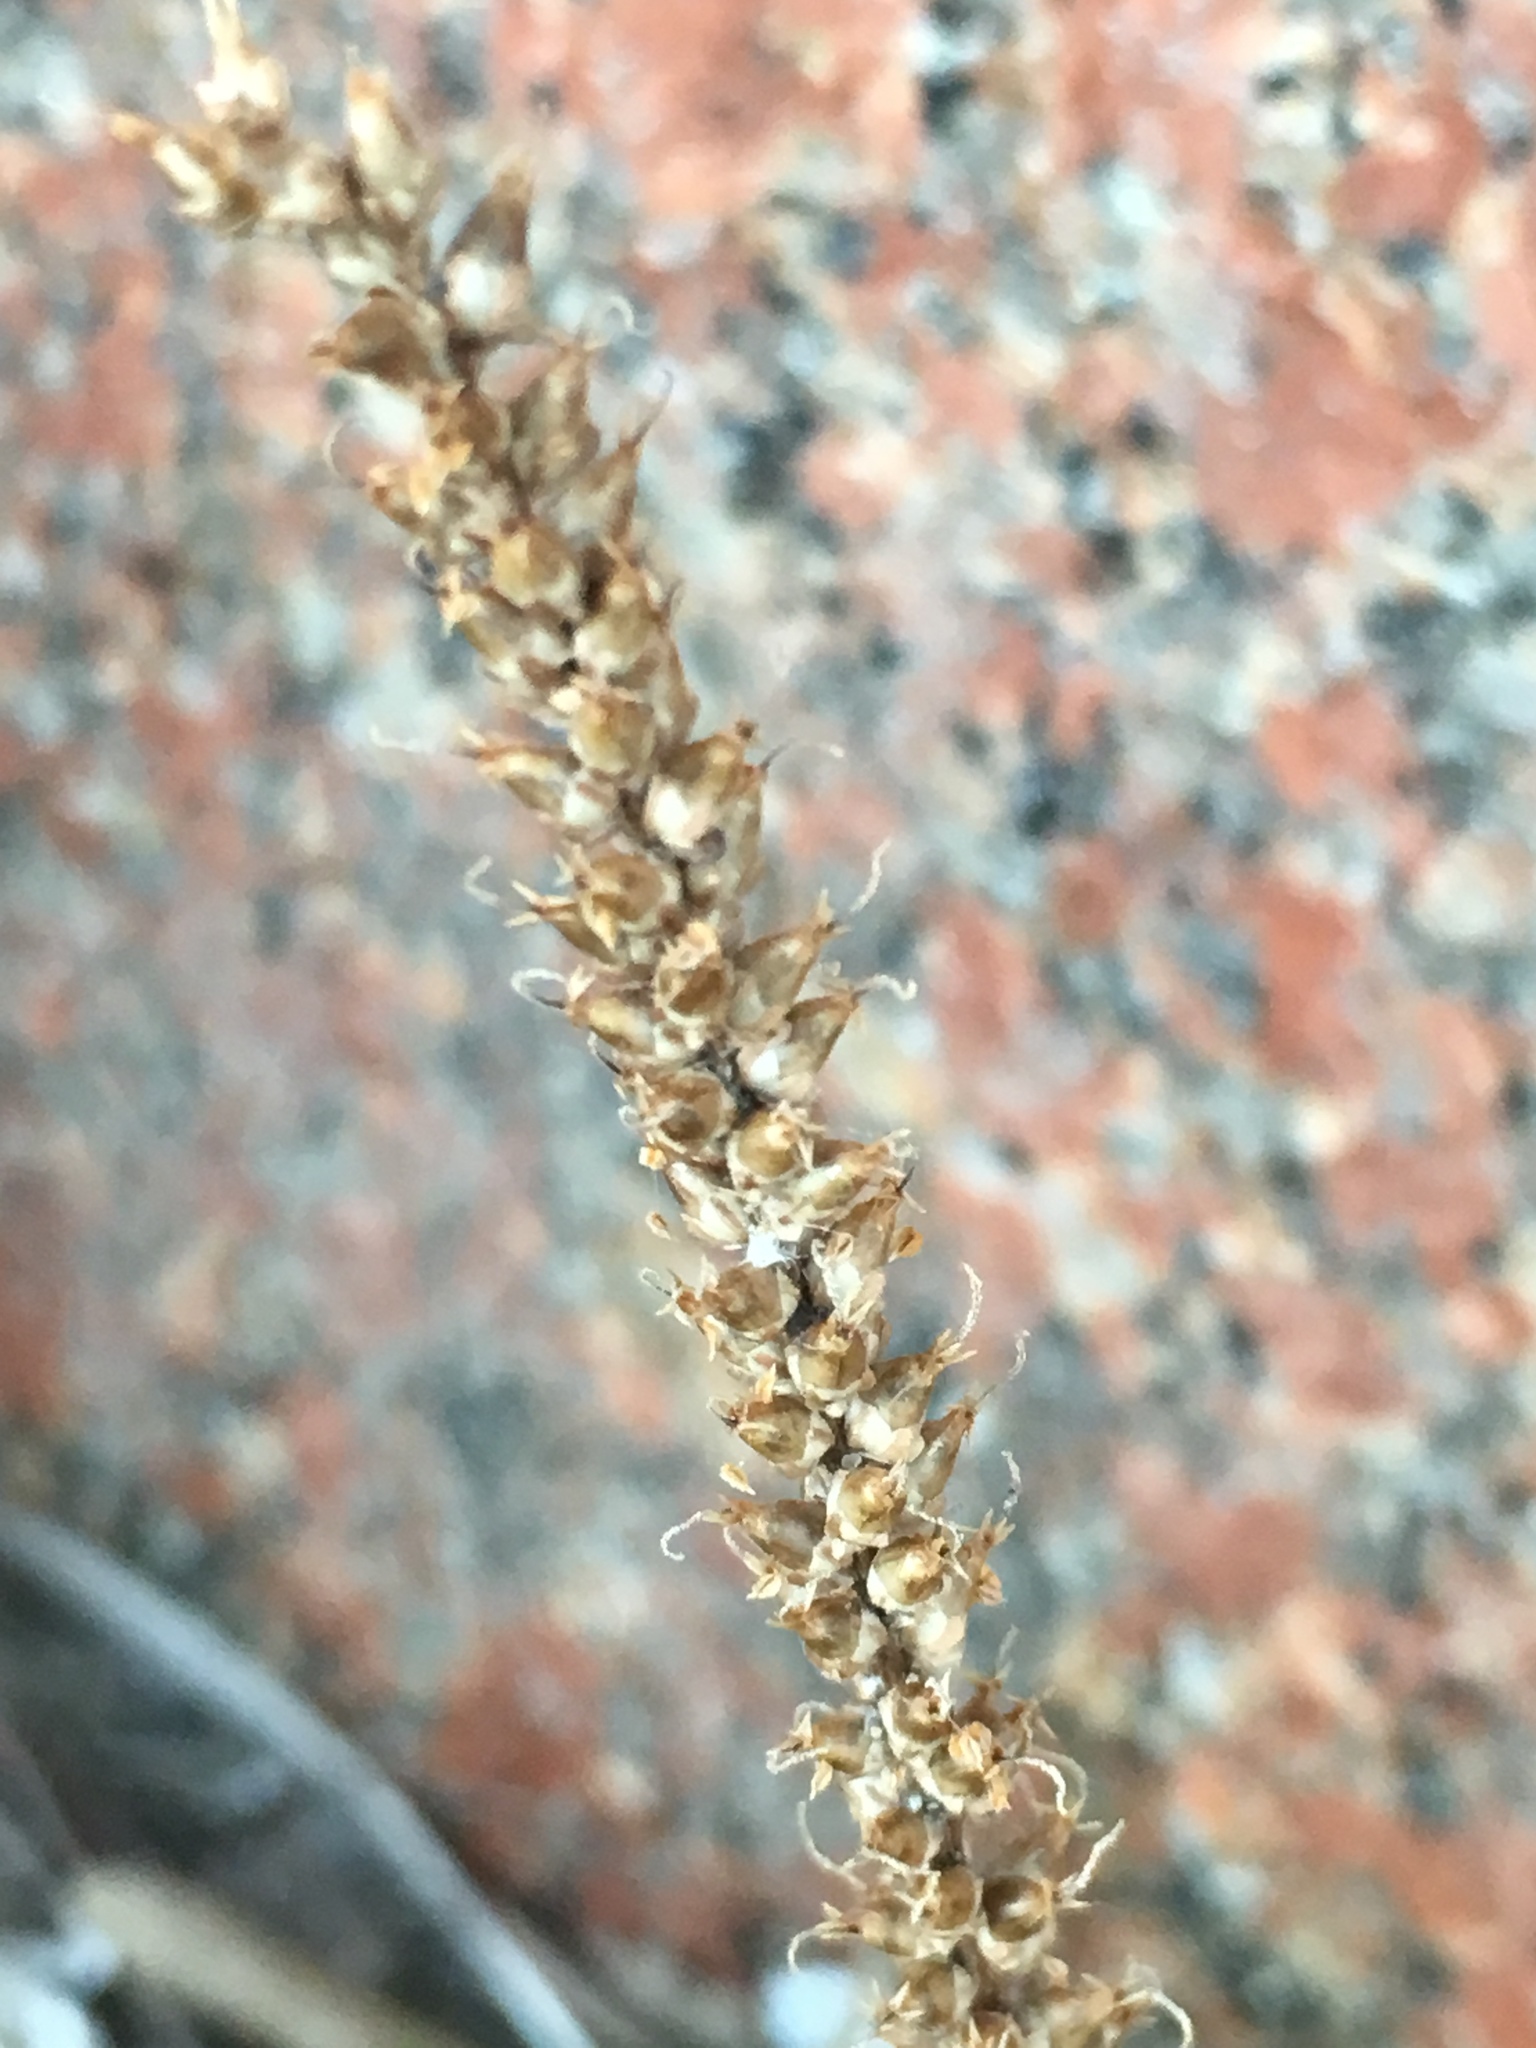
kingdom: Plantae
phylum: Tracheophyta
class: Magnoliopsida
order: Lamiales
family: Plantaginaceae
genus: Plantago
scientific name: Plantago major
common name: Common plantain
